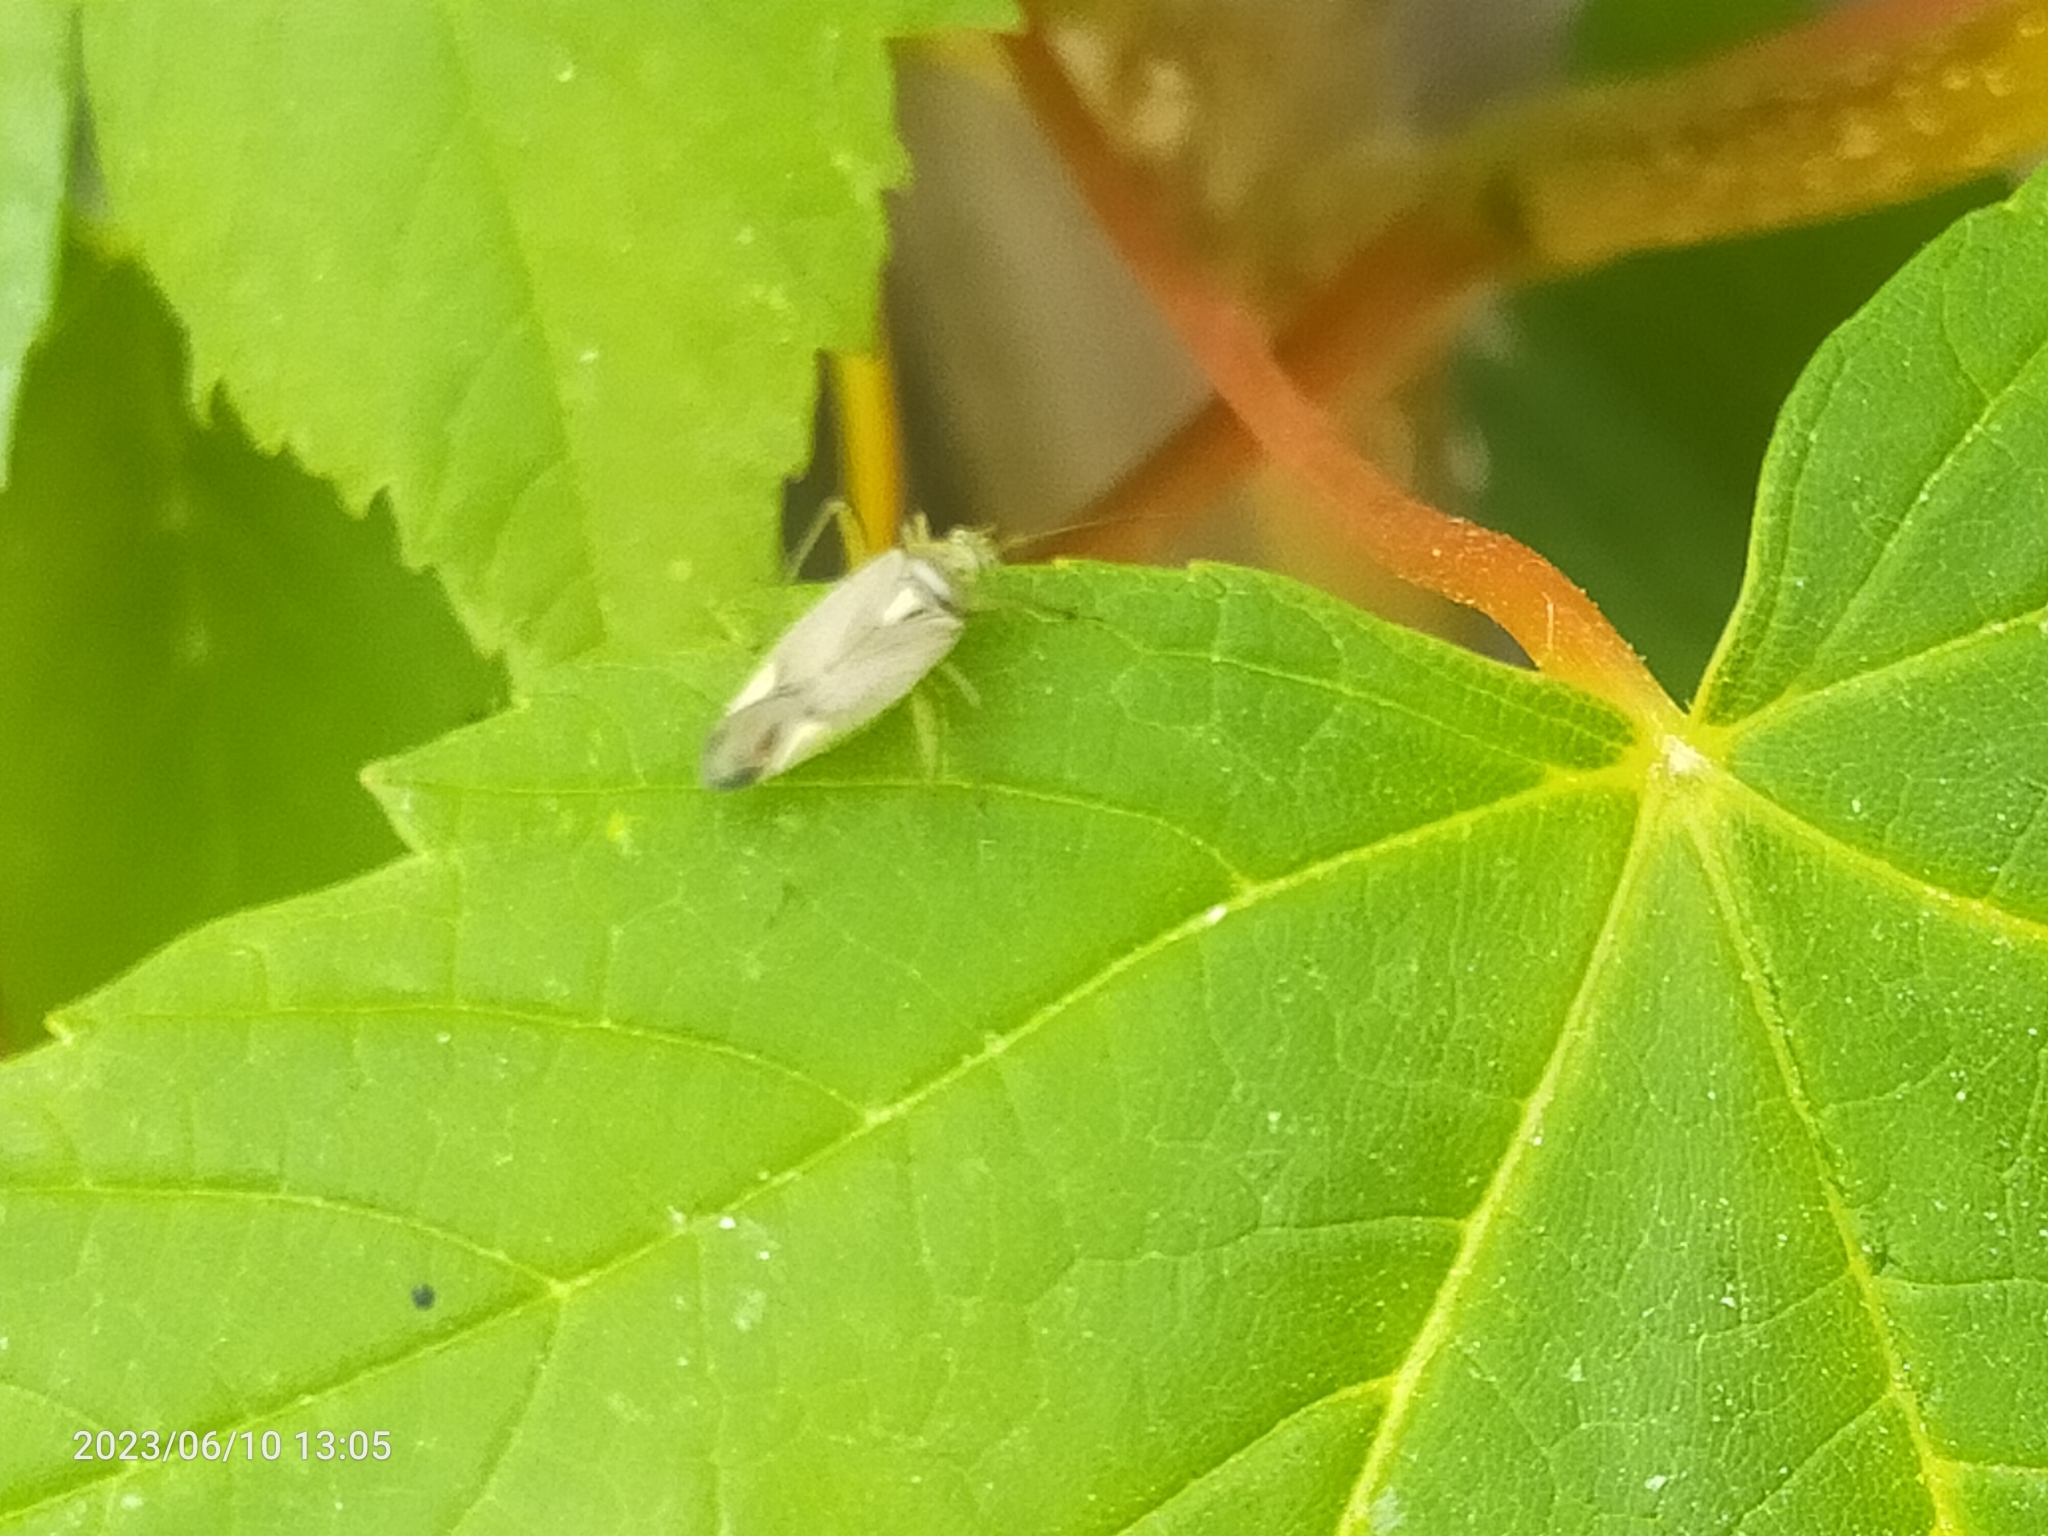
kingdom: Animalia
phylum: Arthropoda
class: Insecta
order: Hemiptera
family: Miridae
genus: Closterotomus
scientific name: Closterotomus trivialis
